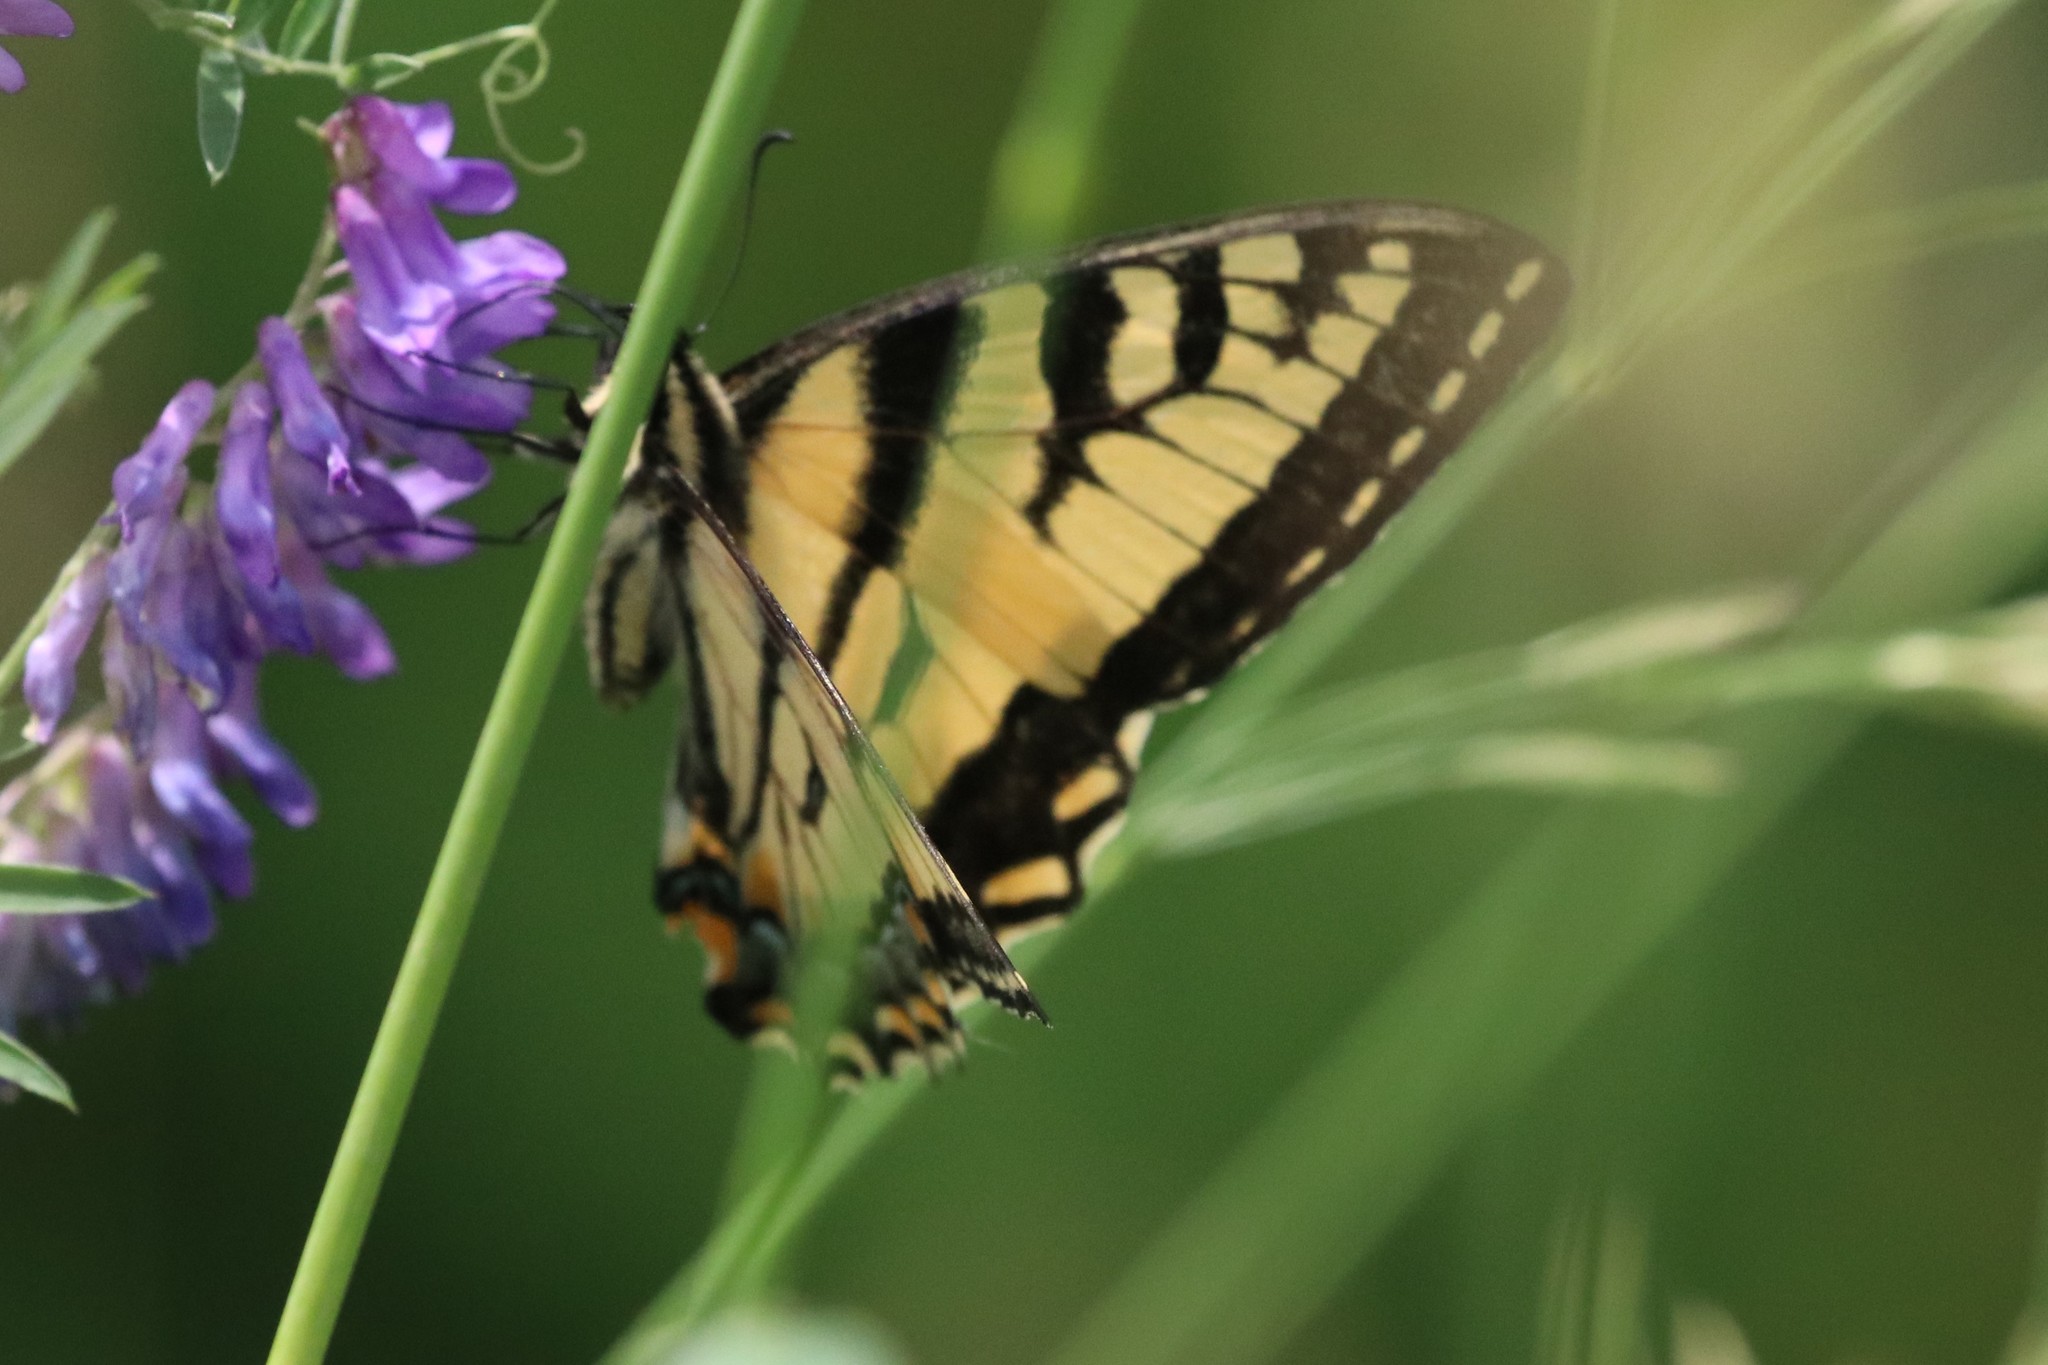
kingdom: Animalia
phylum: Arthropoda
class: Insecta
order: Lepidoptera
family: Papilionidae
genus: Papilio
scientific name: Papilio canadensis
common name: Canadian tiger swallowtail
